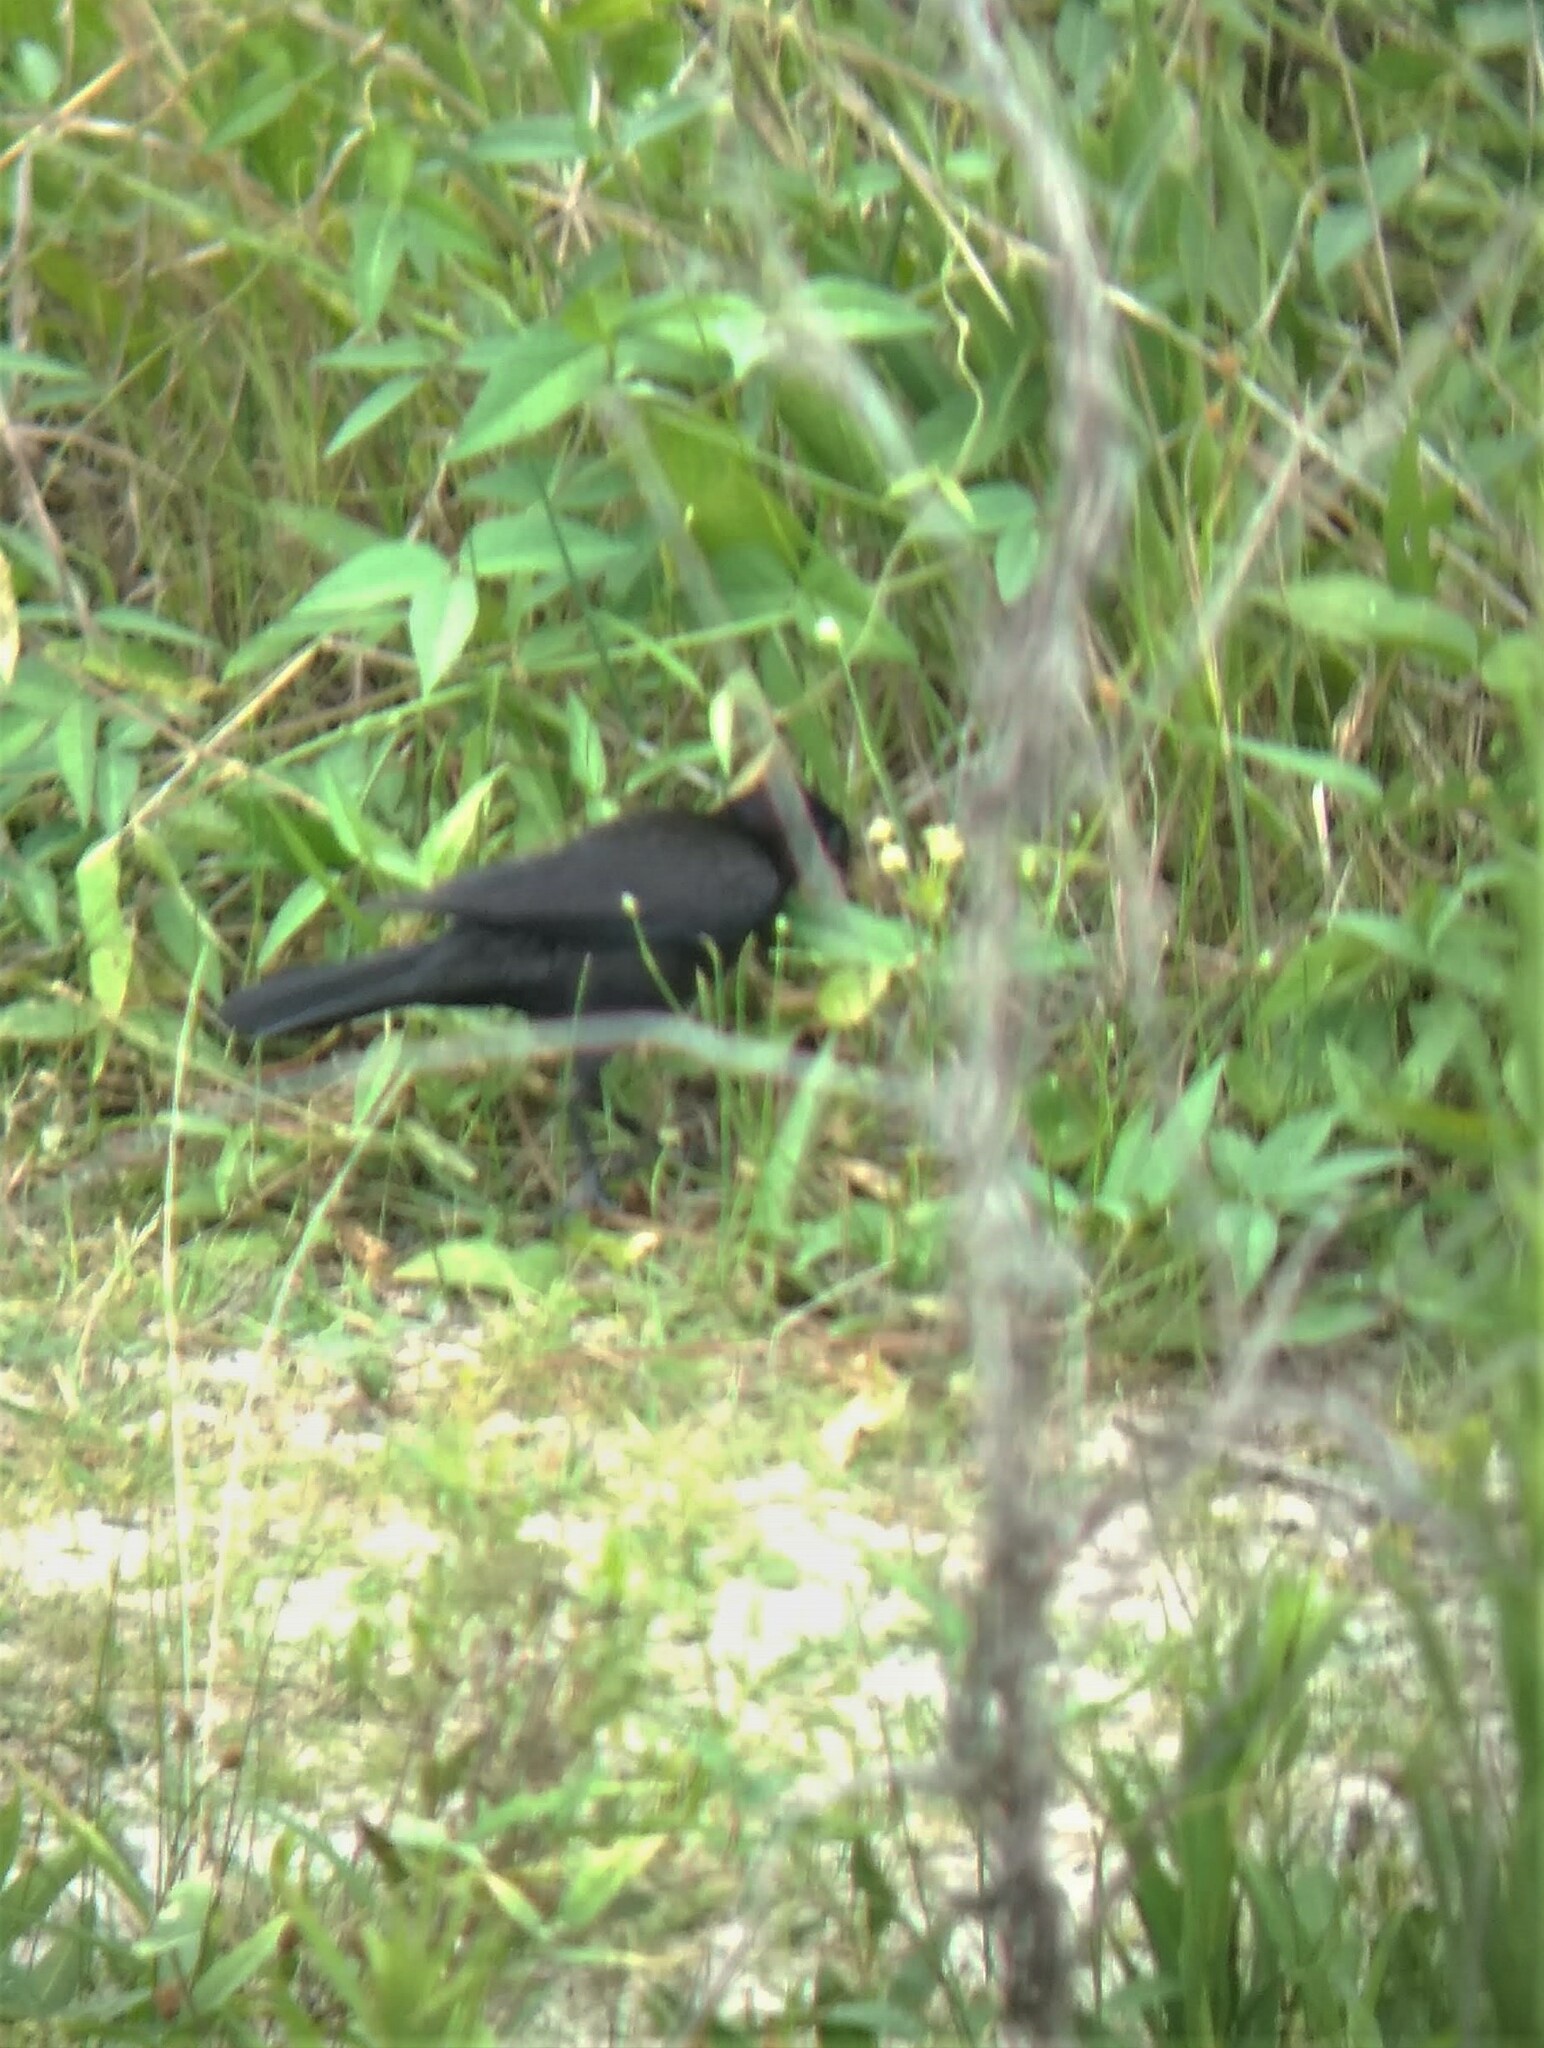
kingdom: Animalia
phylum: Chordata
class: Aves
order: Passeriformes
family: Icteridae
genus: Quiscalus
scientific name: Quiscalus quiscula
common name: Common grackle
